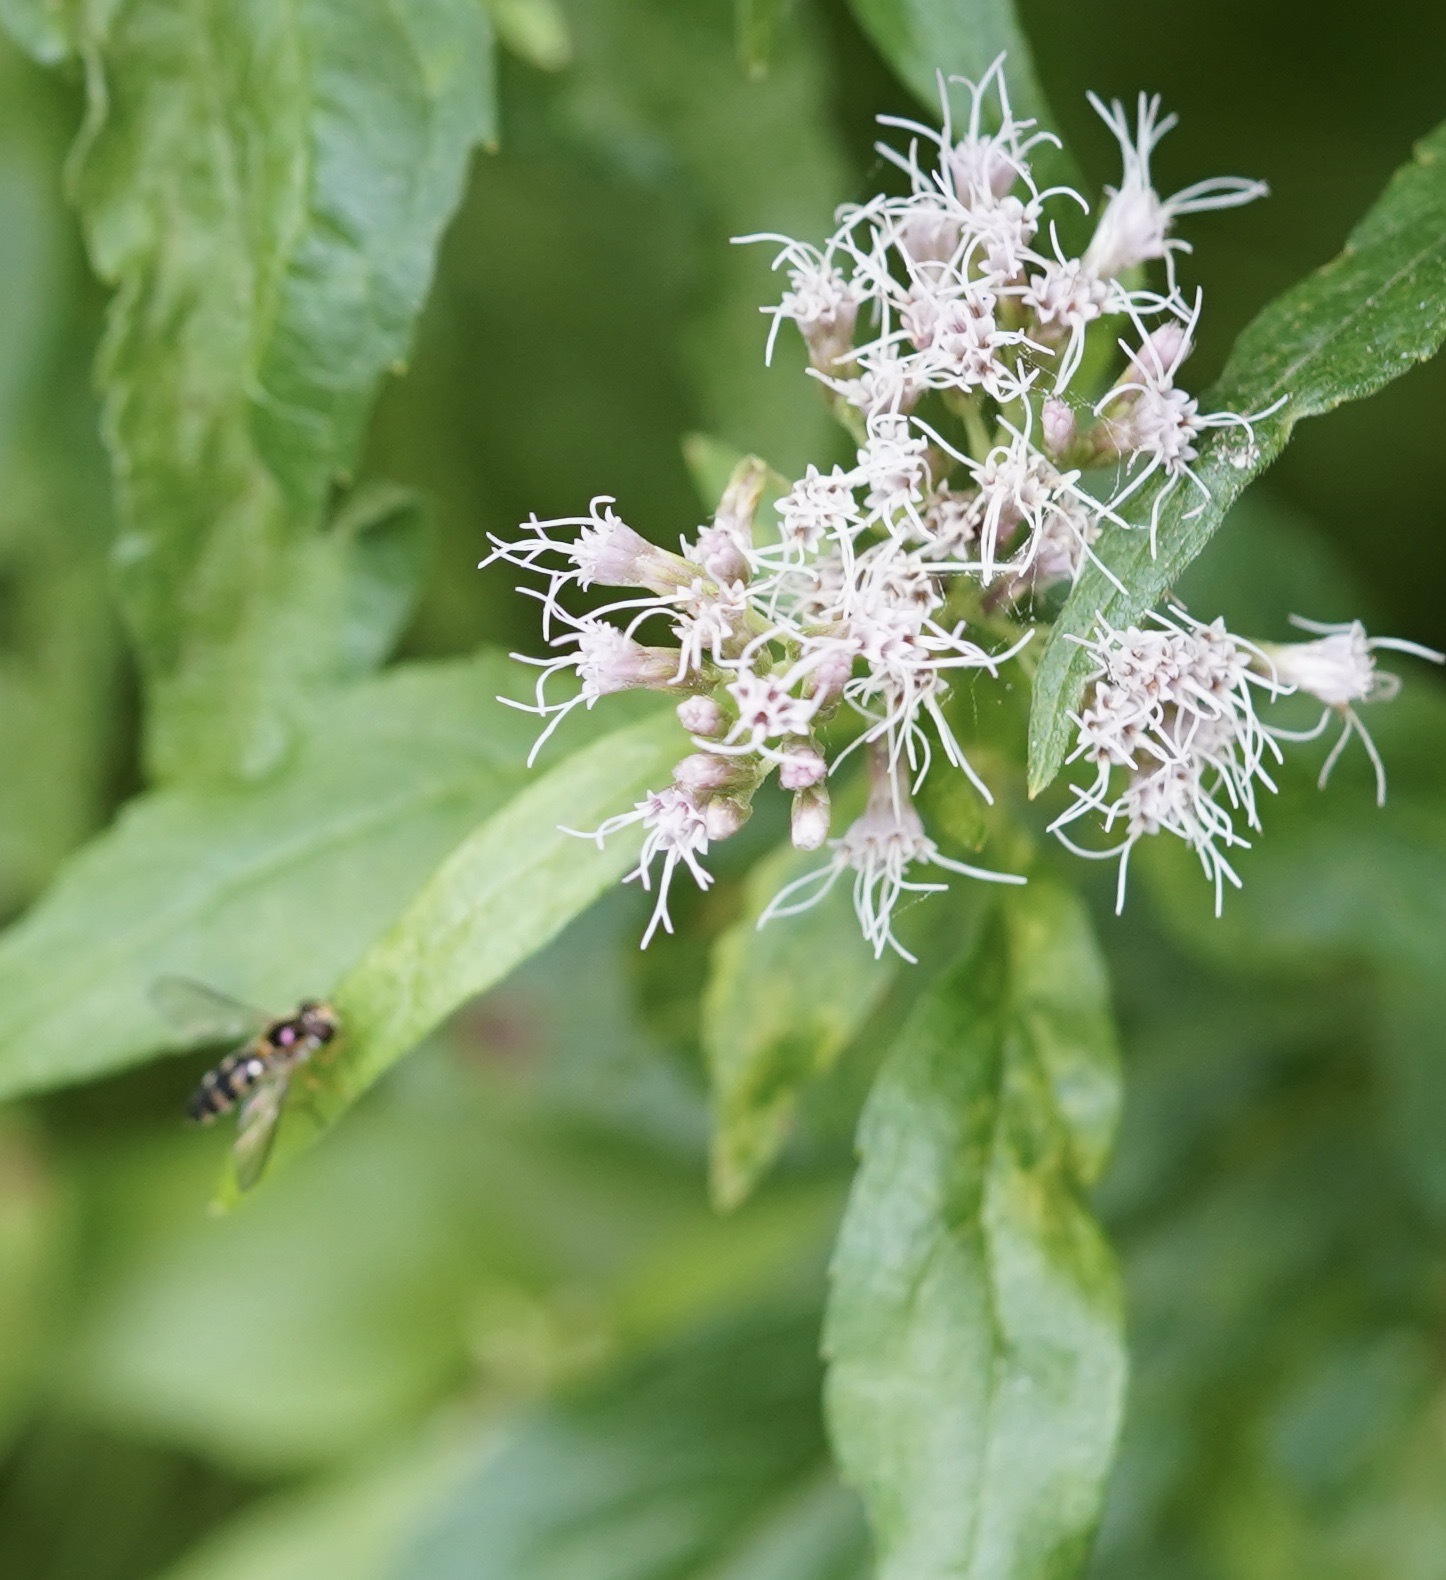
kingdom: Animalia
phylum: Arthropoda
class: Insecta
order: Diptera
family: Syrphidae
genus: Meligramma
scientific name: Meligramma
